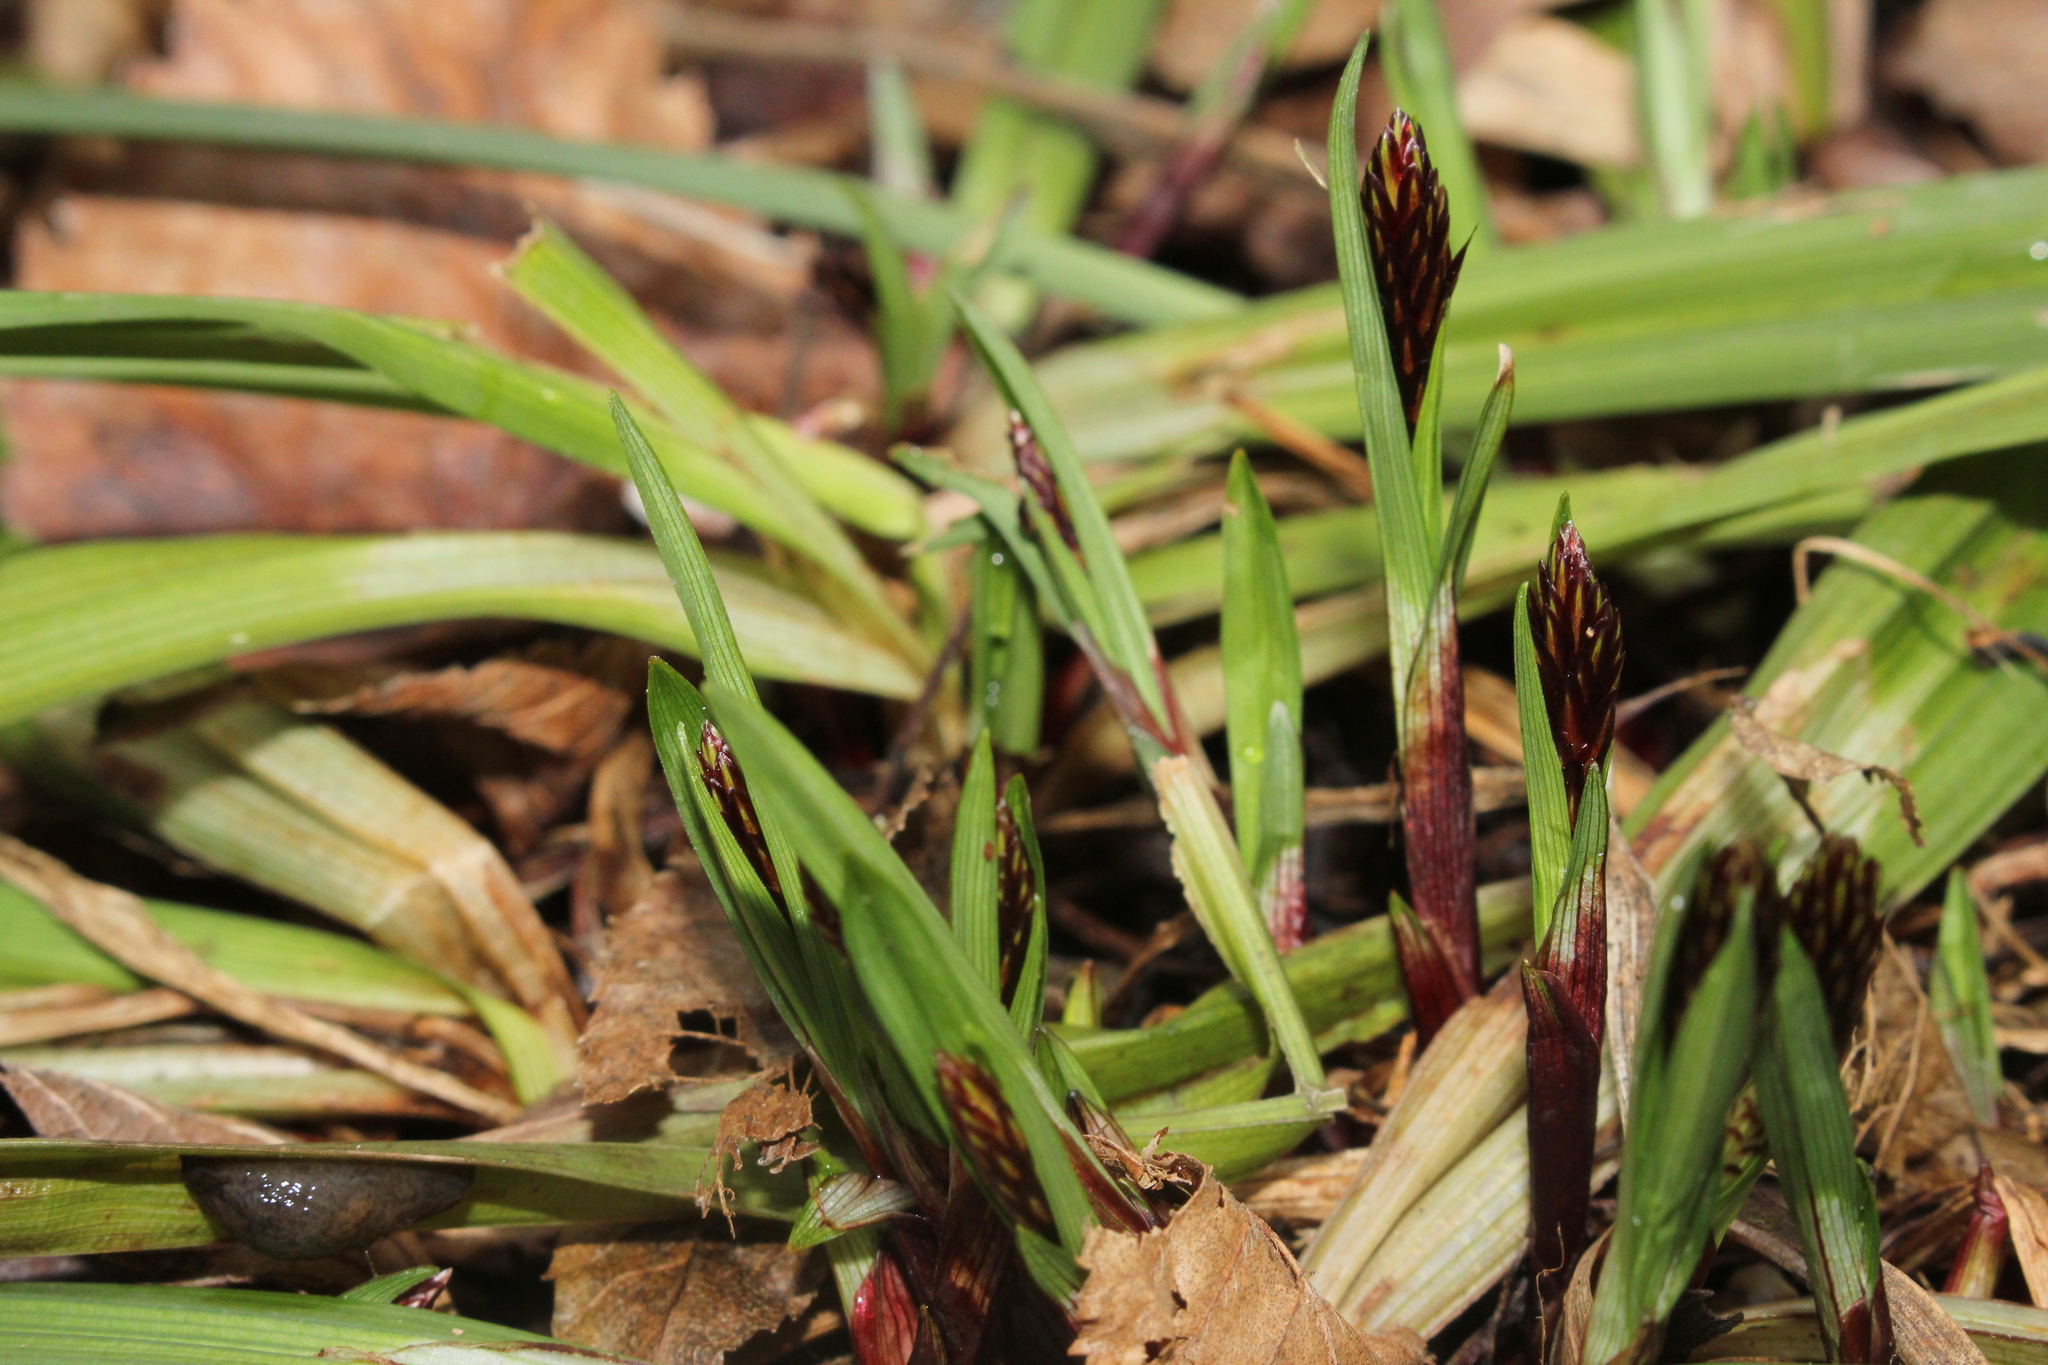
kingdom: Plantae
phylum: Tracheophyta
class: Liliopsida
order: Poales
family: Cyperaceae
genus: Carex
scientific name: Carex careyana
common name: Carey's sedge
